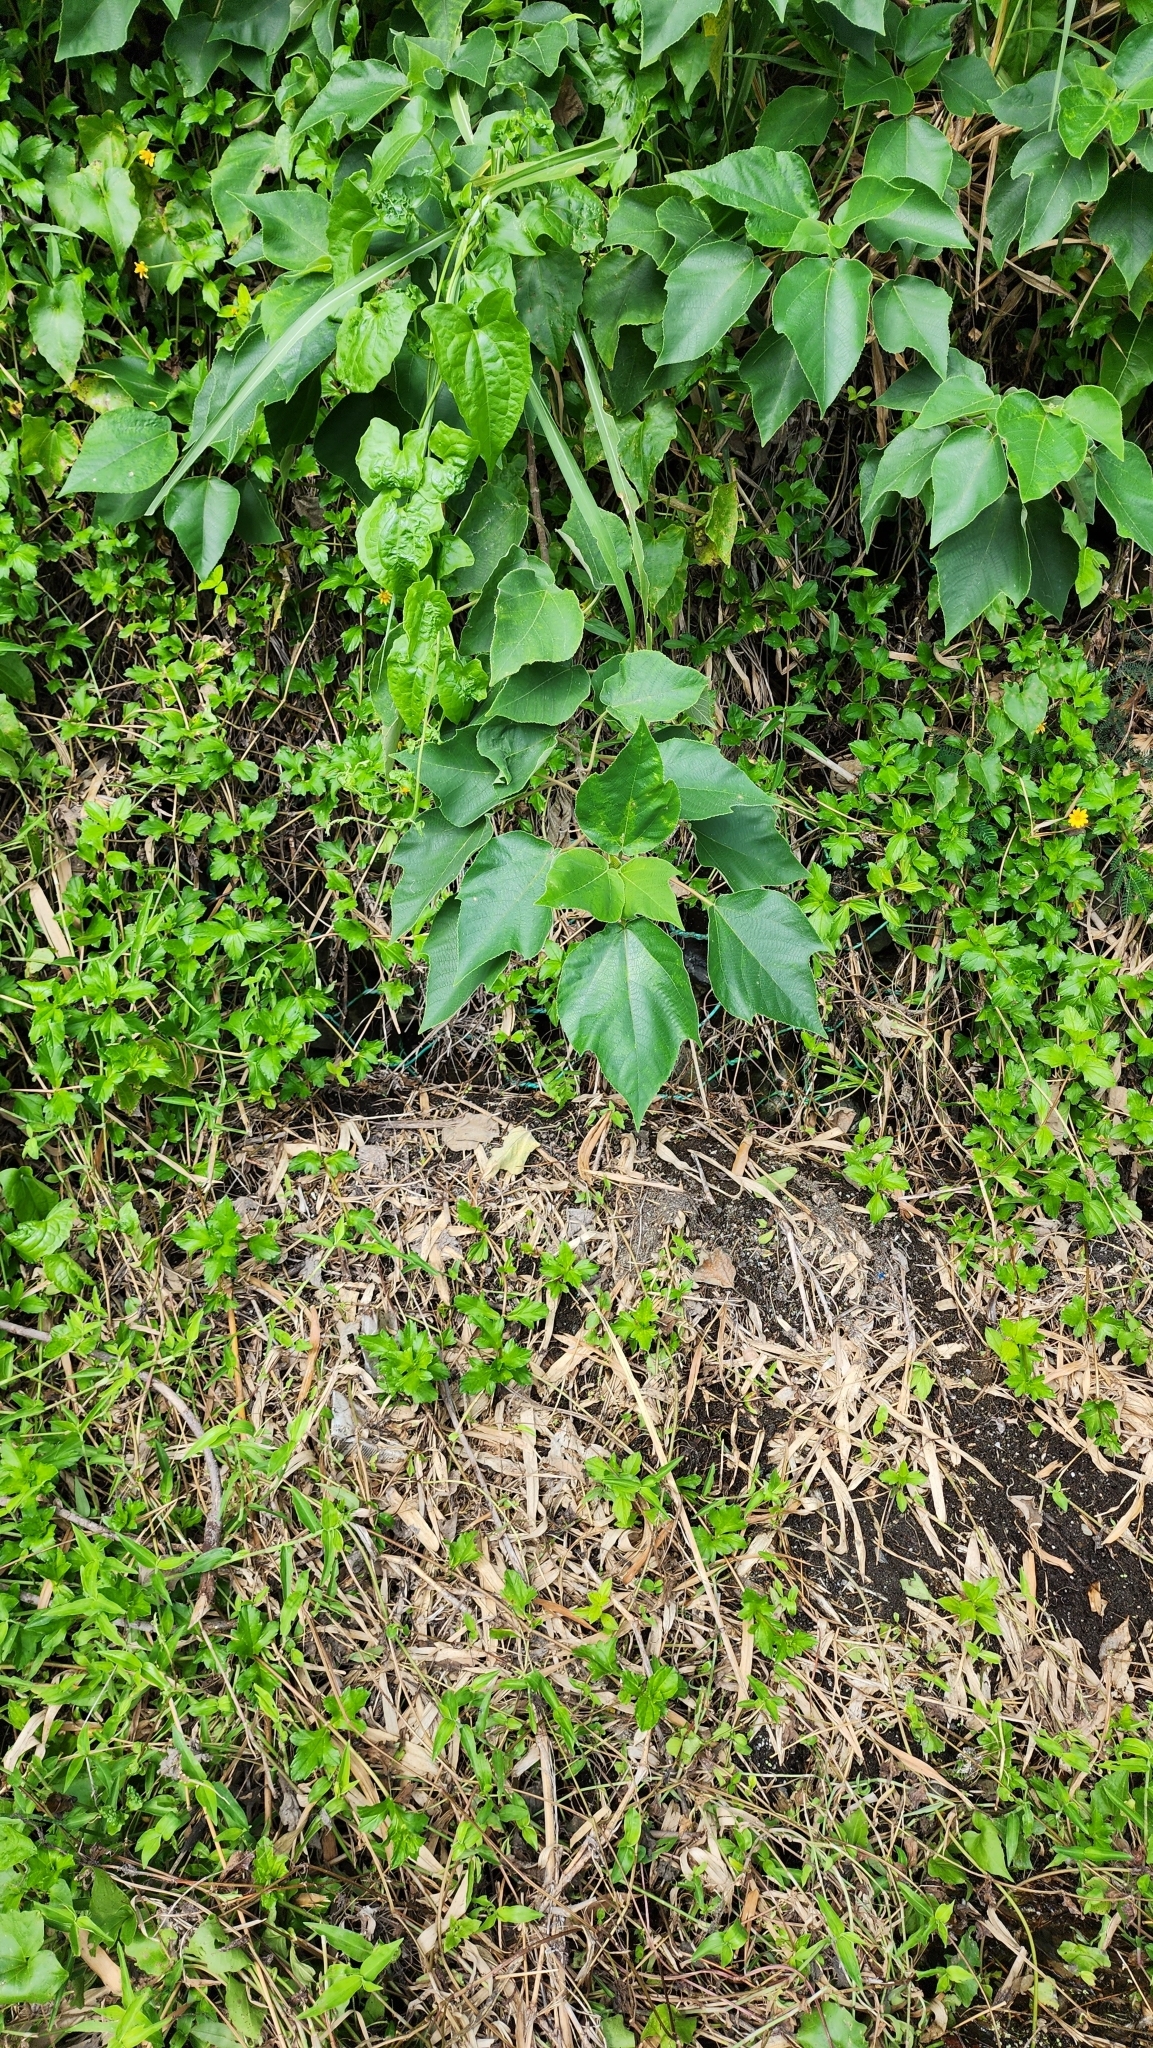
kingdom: Plantae
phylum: Tracheophyta
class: Magnoliopsida
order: Rosales
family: Moraceae
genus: Broussonetia
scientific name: Broussonetia papyrifera
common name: Paper mulberry
